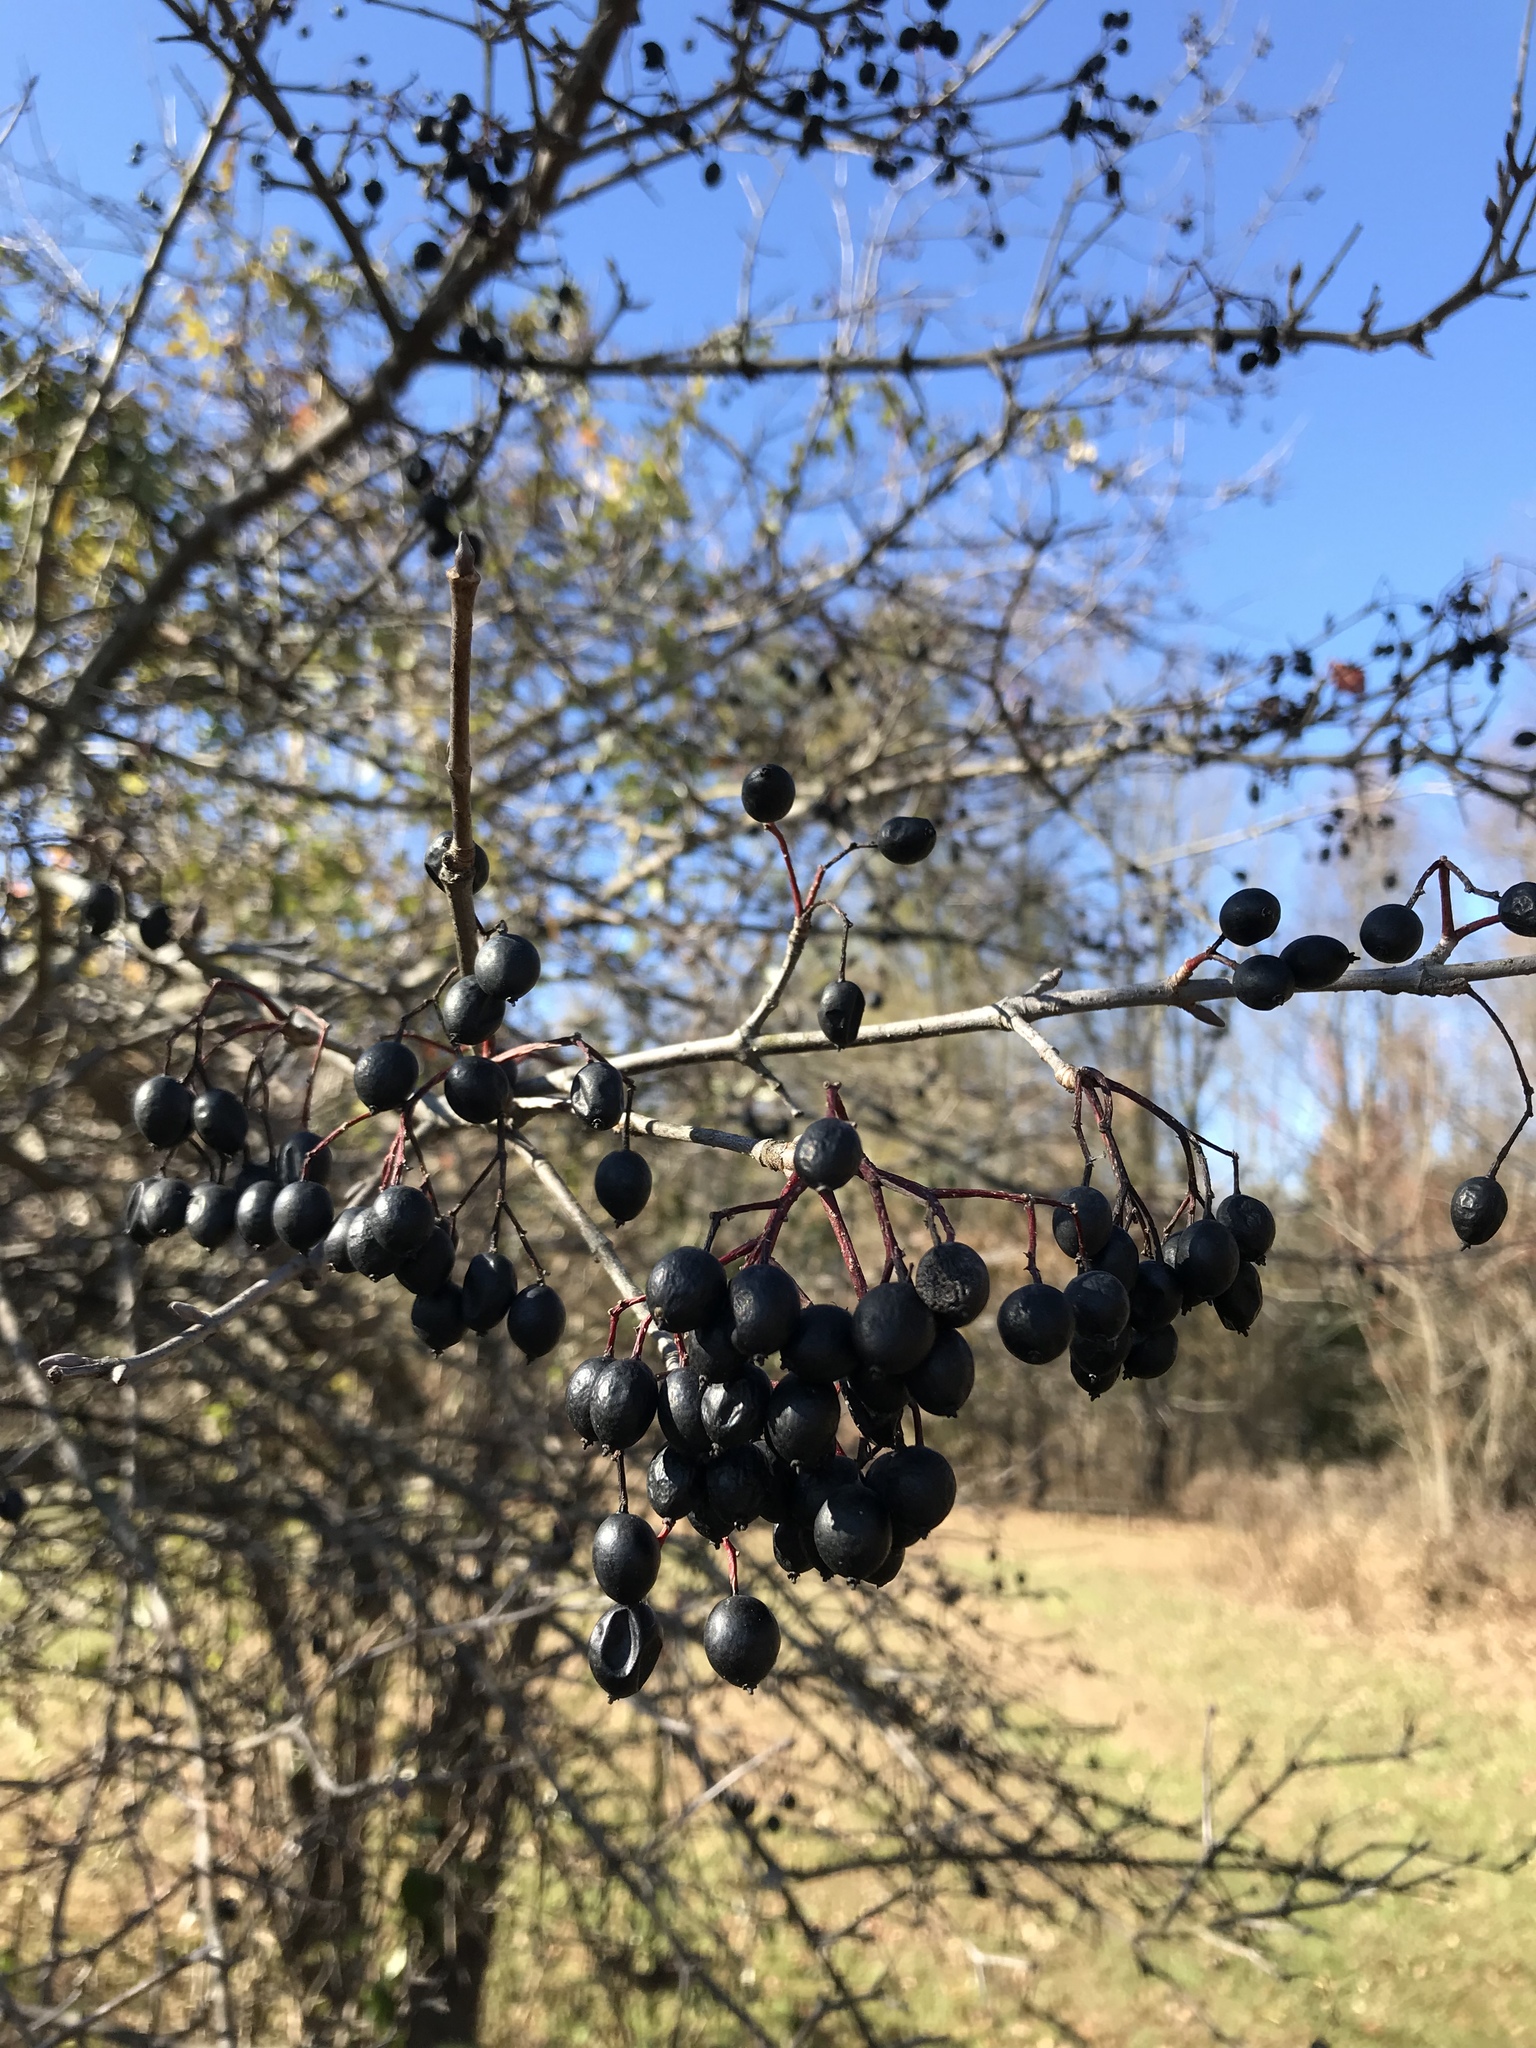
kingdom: Plantae
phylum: Tracheophyta
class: Magnoliopsida
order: Dipsacales
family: Viburnaceae
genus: Viburnum
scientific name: Viburnum prunifolium
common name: Black haw
